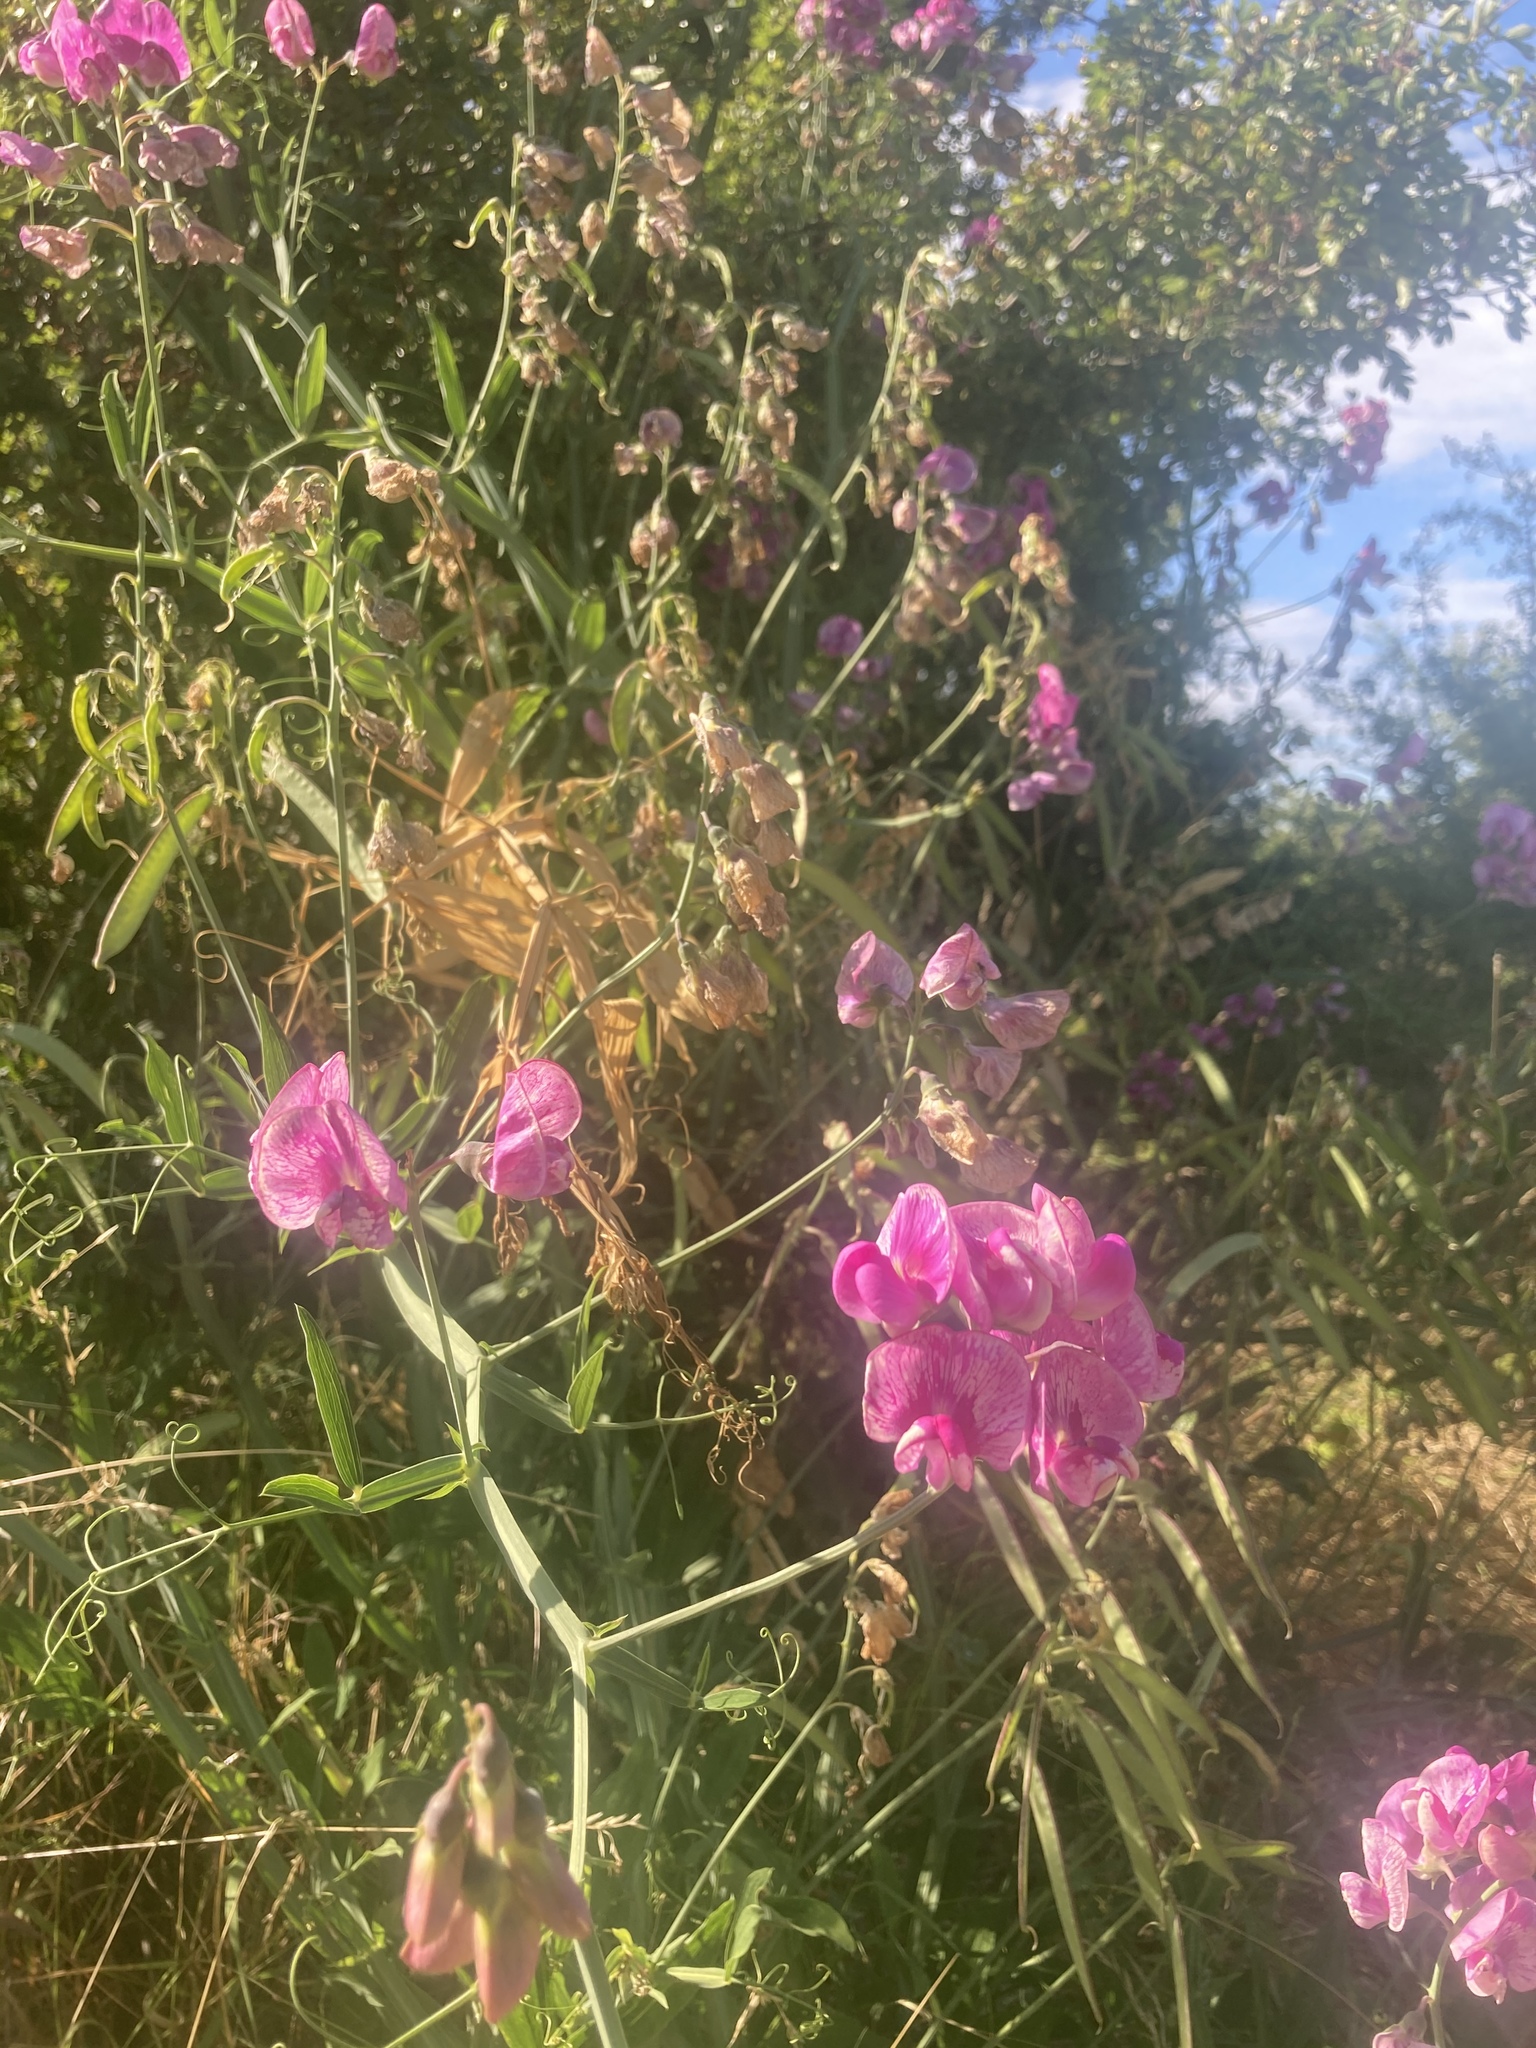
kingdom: Plantae
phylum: Tracheophyta
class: Magnoliopsida
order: Fabales
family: Fabaceae
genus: Lathyrus
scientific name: Lathyrus latifolius
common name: Perennial pea
